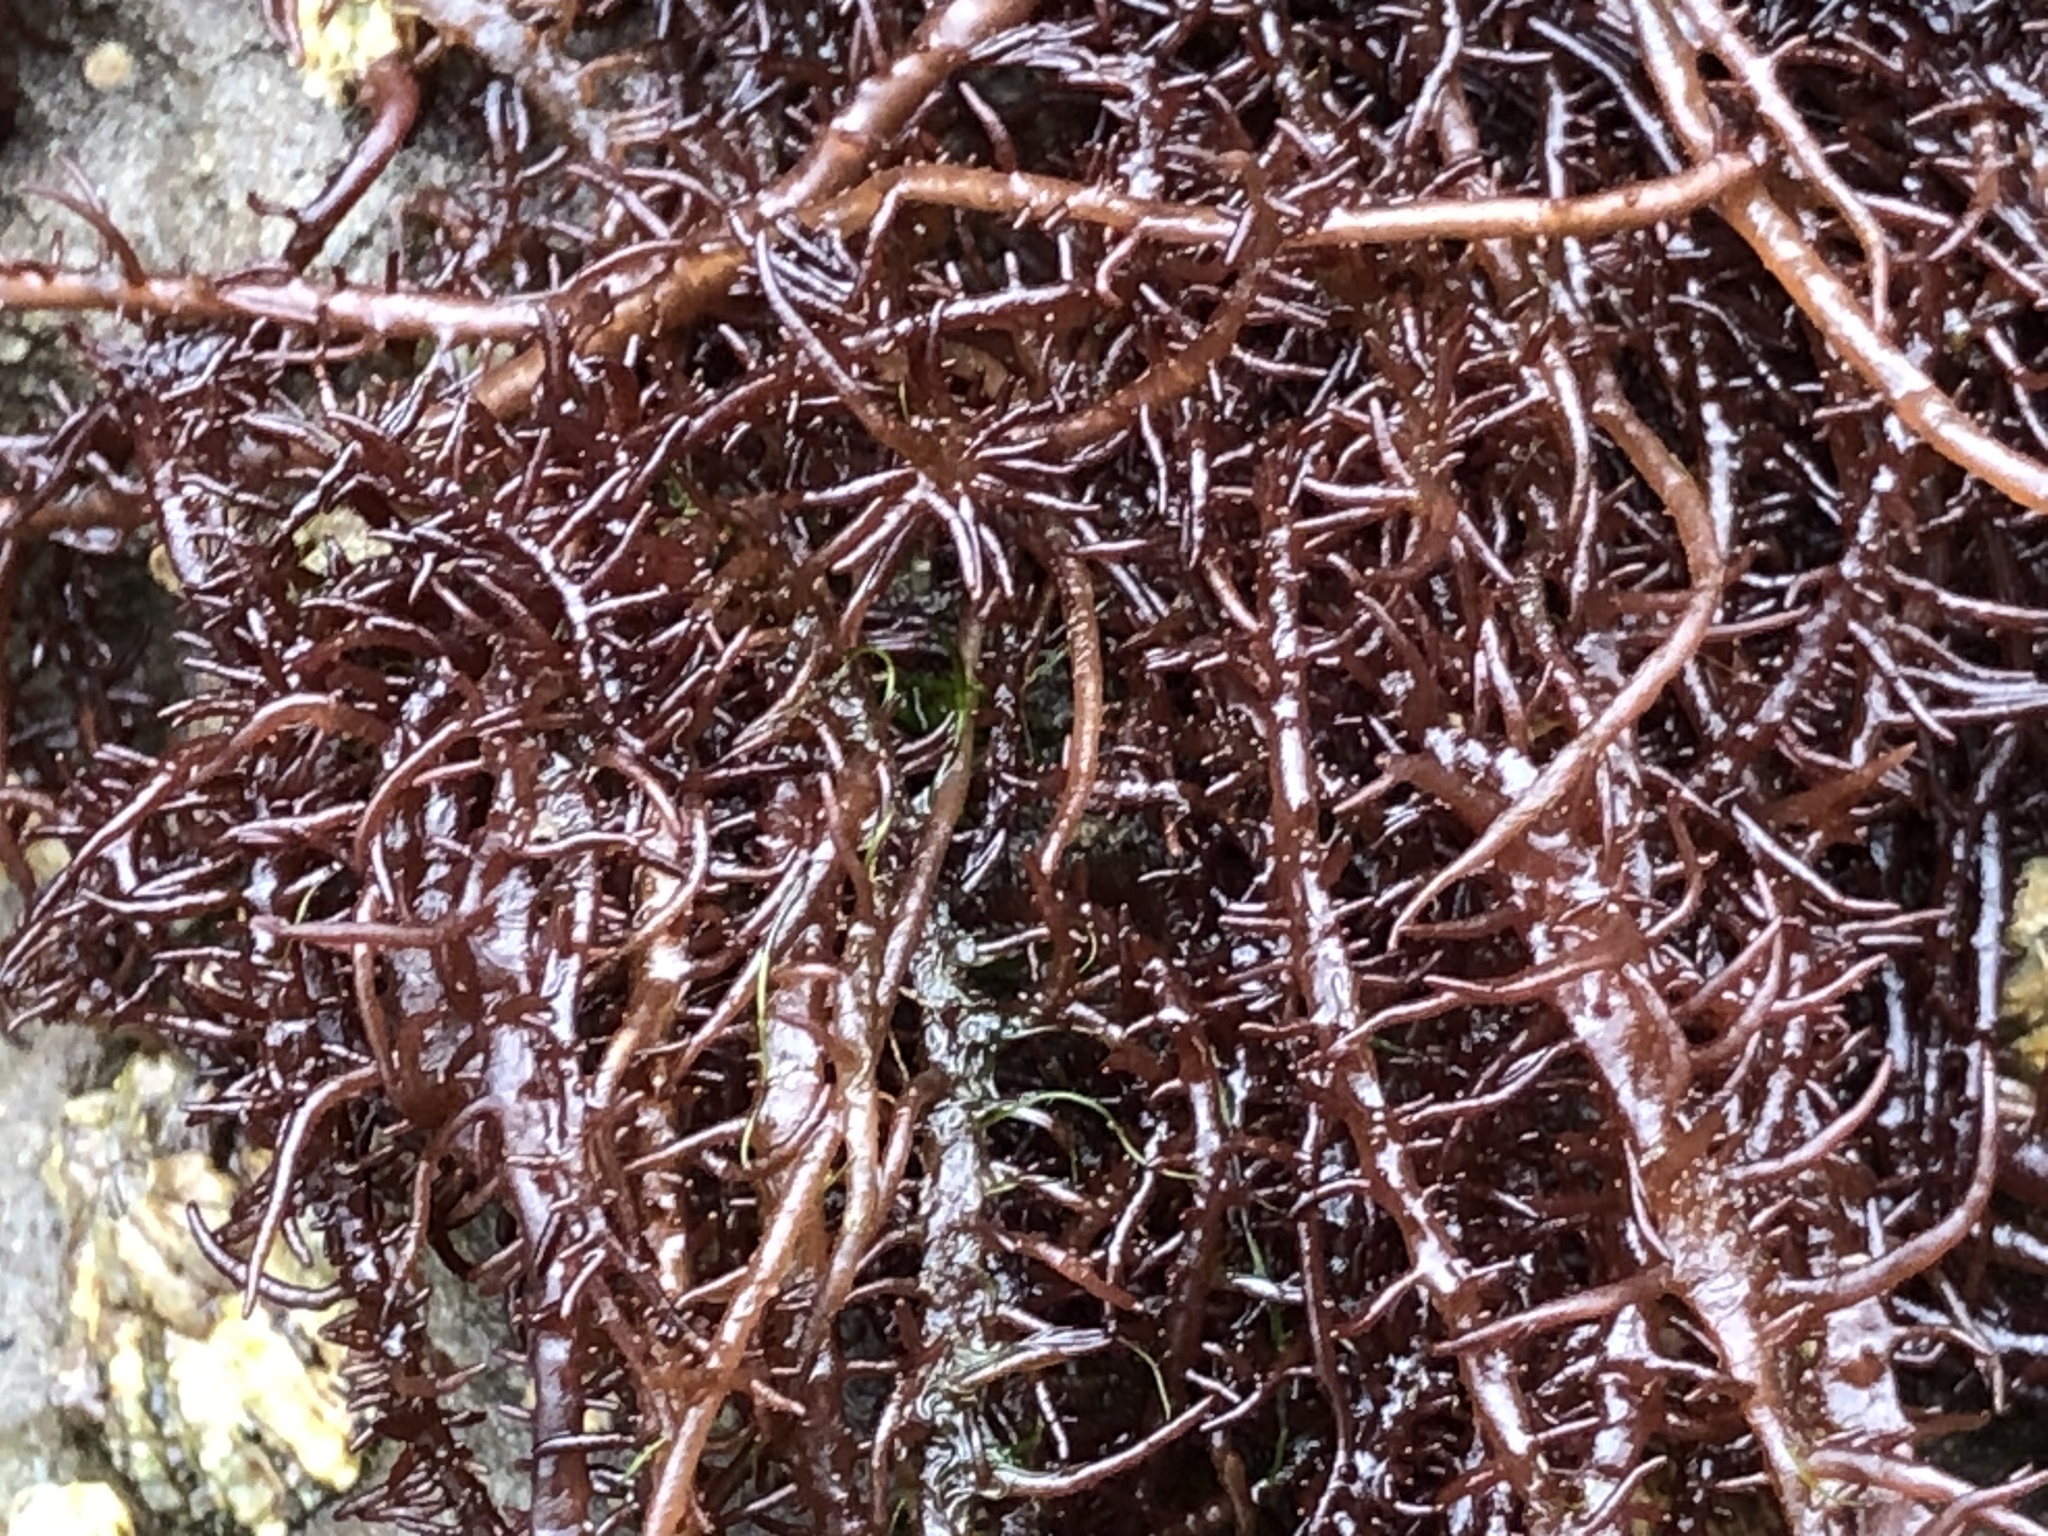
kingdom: Plantae
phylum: Rhodophyta
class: Florideophyceae
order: Nemaliales
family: Liagoraceae
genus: Cumagloia
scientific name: Cumagloia andersonii
